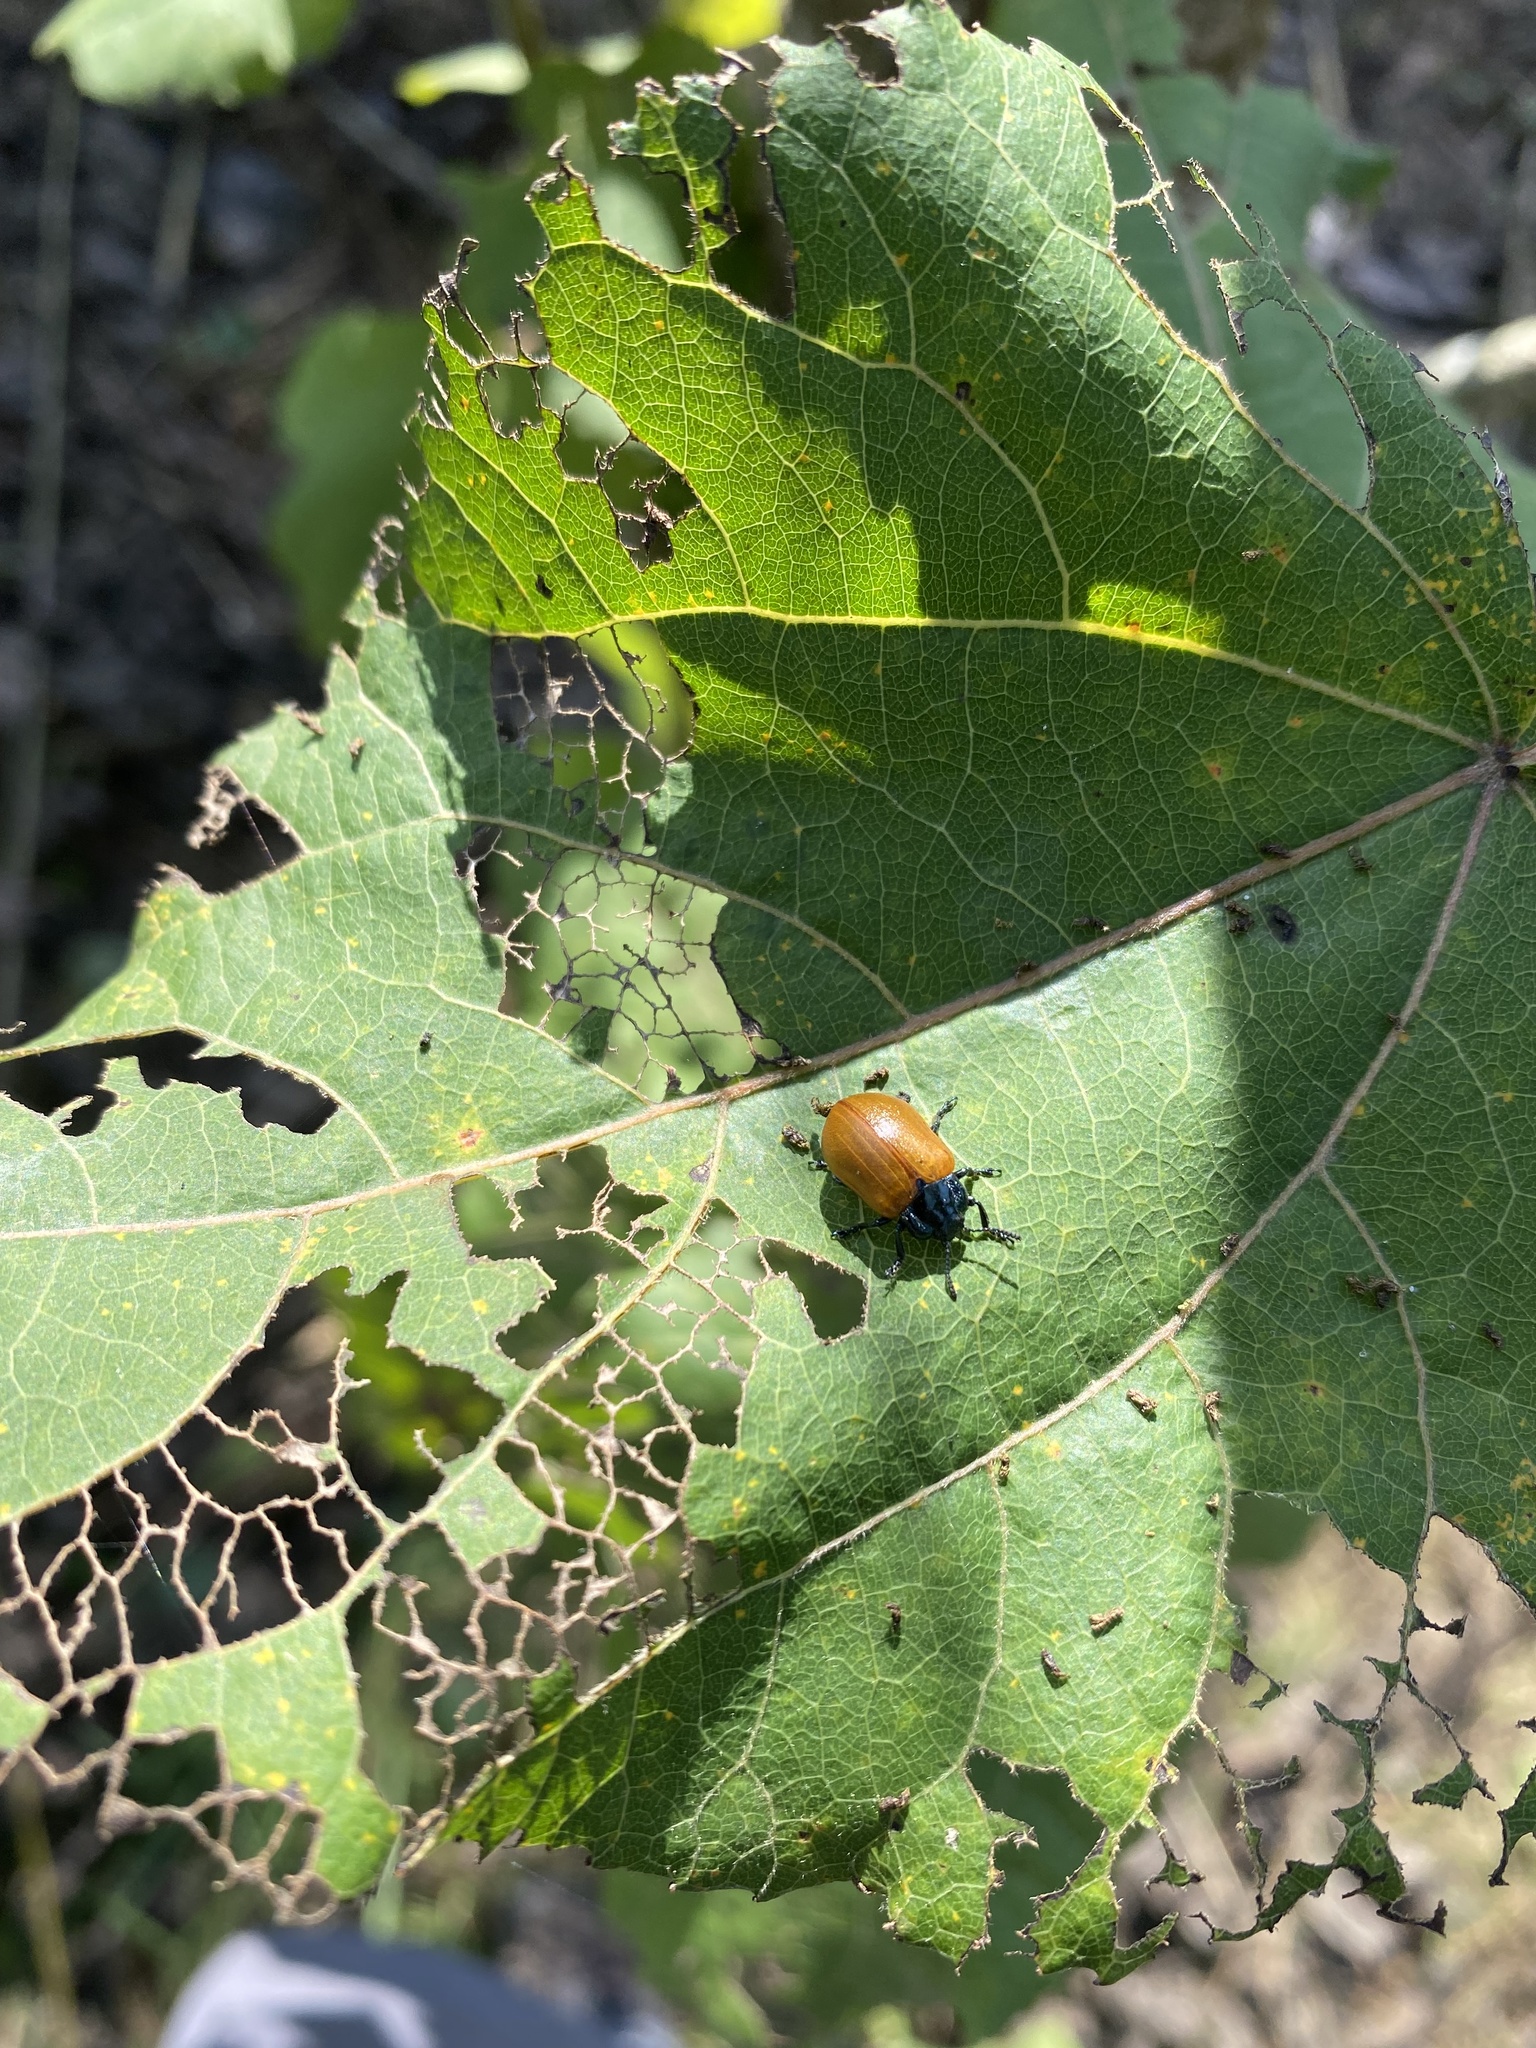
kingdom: Animalia
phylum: Arthropoda
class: Insecta
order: Coleoptera
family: Chrysomelidae
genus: Chrysomela
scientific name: Chrysomela populi
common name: Red poplar leaf beetle
